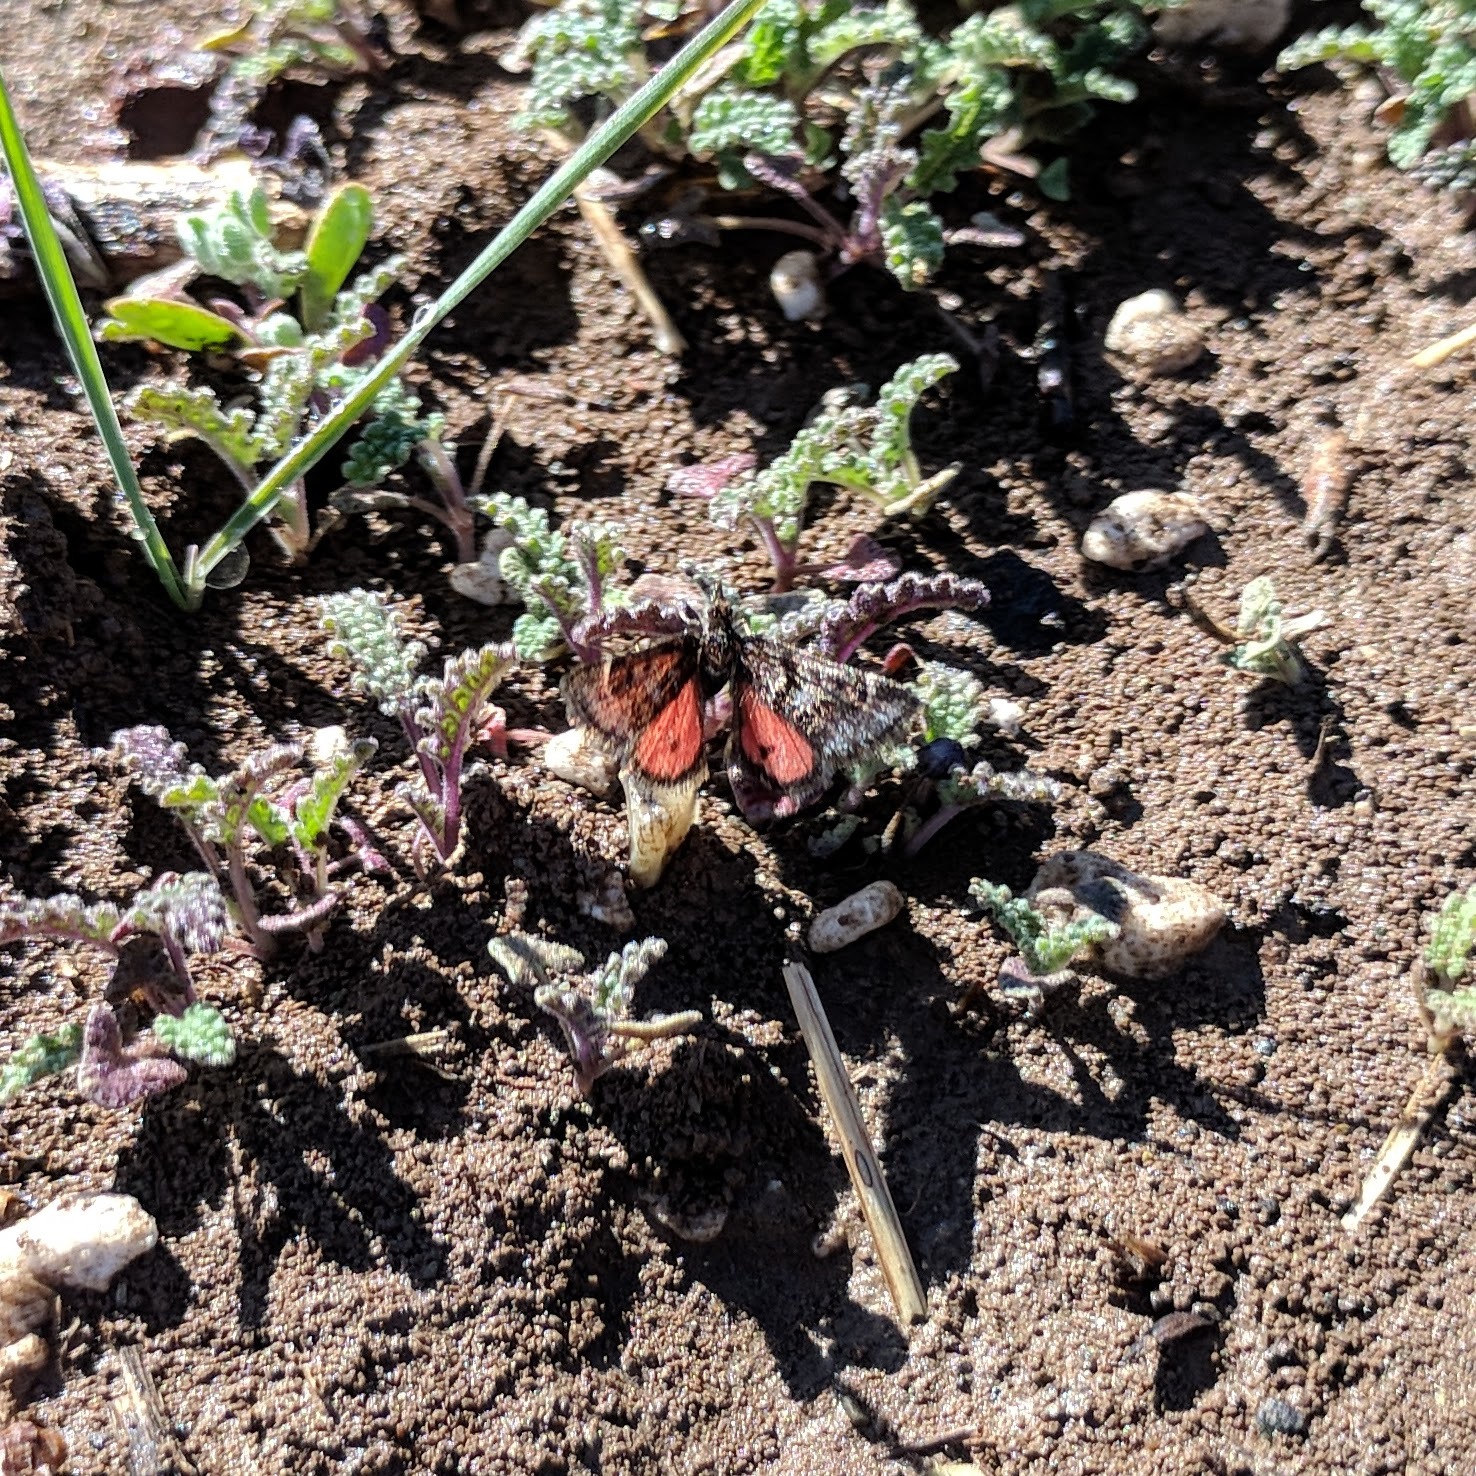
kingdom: Animalia
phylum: Arthropoda
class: Insecta
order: Lepidoptera
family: Crambidae
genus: Pyrausta
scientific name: Pyrausta dapalis
